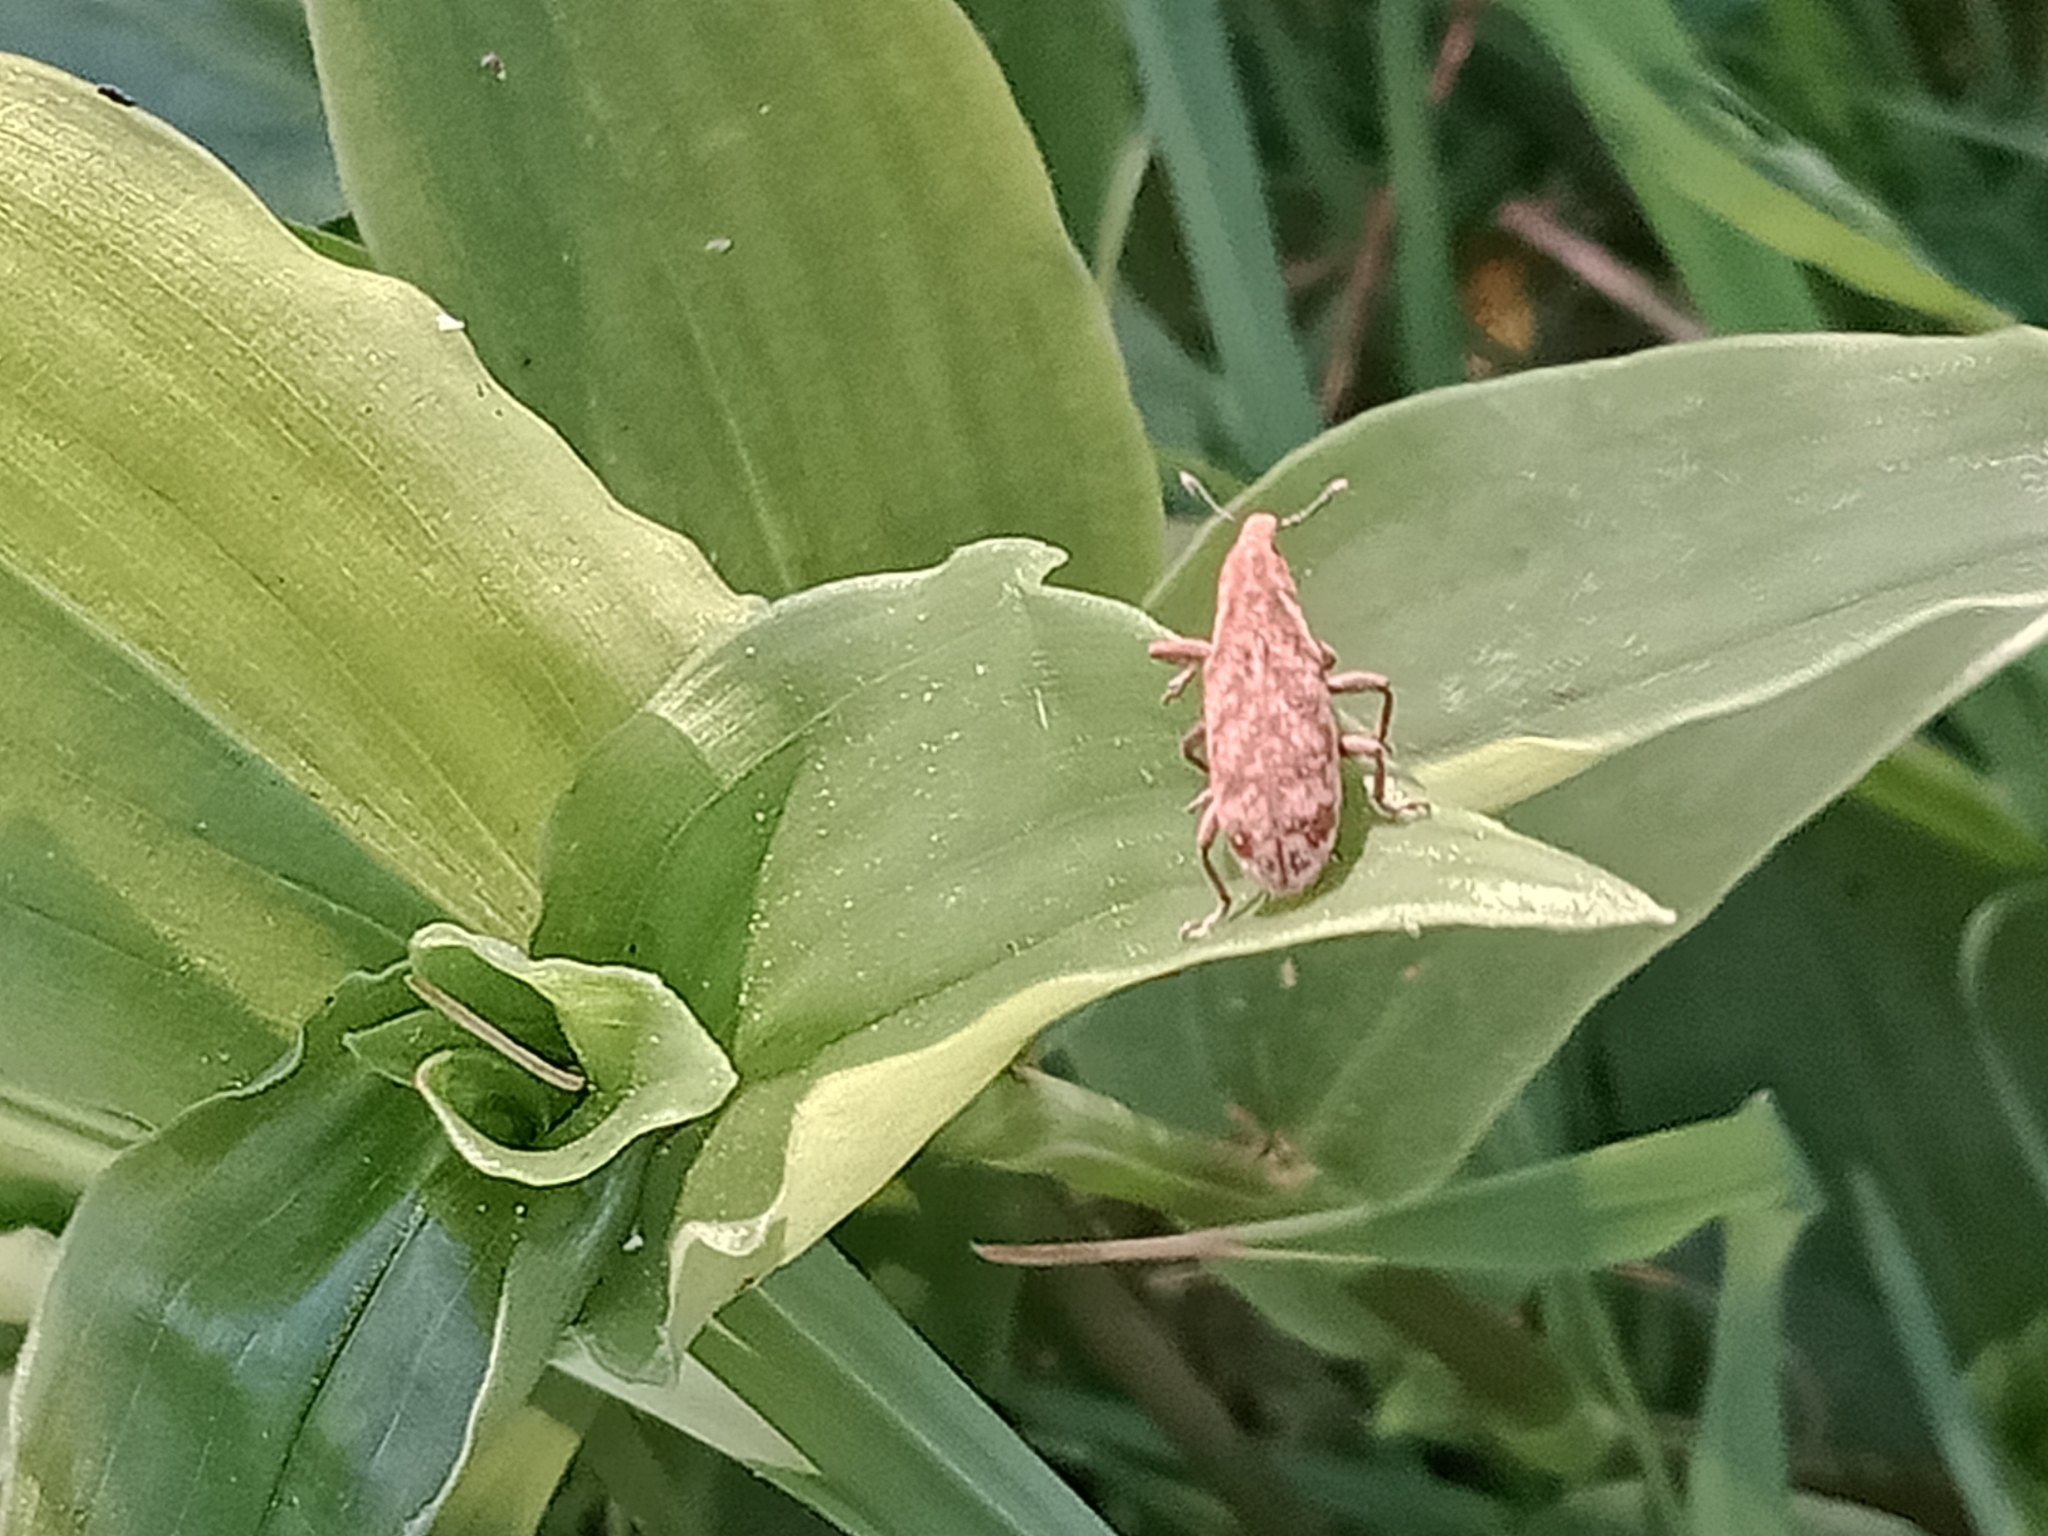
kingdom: Plantae
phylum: Tracheophyta
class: Liliopsida
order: Commelinales
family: Commelinaceae
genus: Tradescantia
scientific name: Tradescantia fluminensis
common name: Wandering-jew
